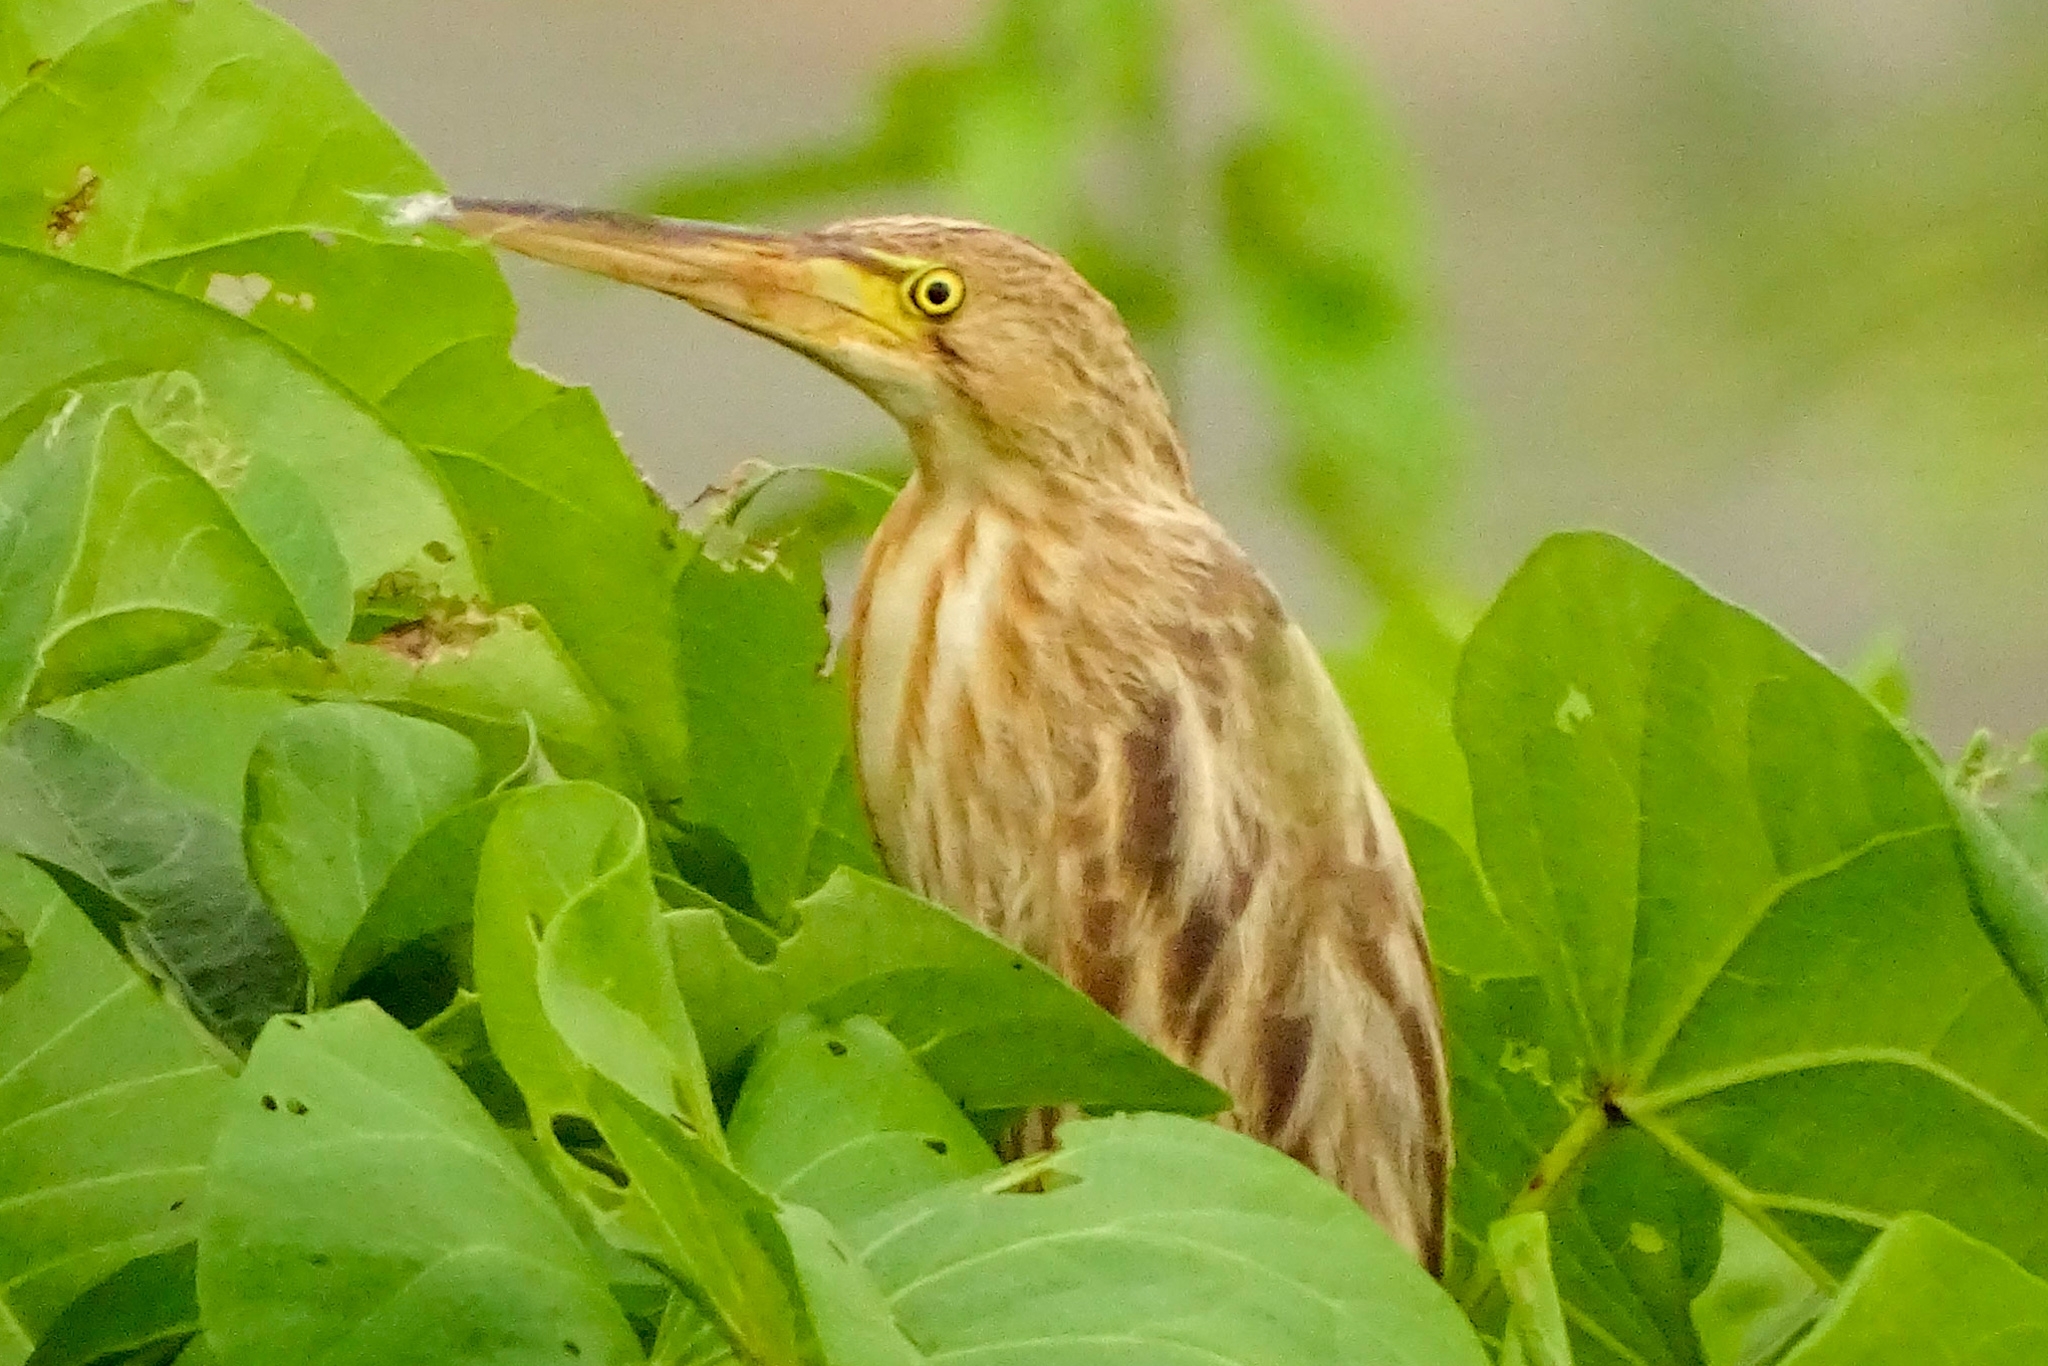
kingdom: Animalia
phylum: Chordata
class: Aves
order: Pelecaniformes
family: Ardeidae
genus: Ixobrychus
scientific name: Ixobrychus sinensis
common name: Yellow bittern
